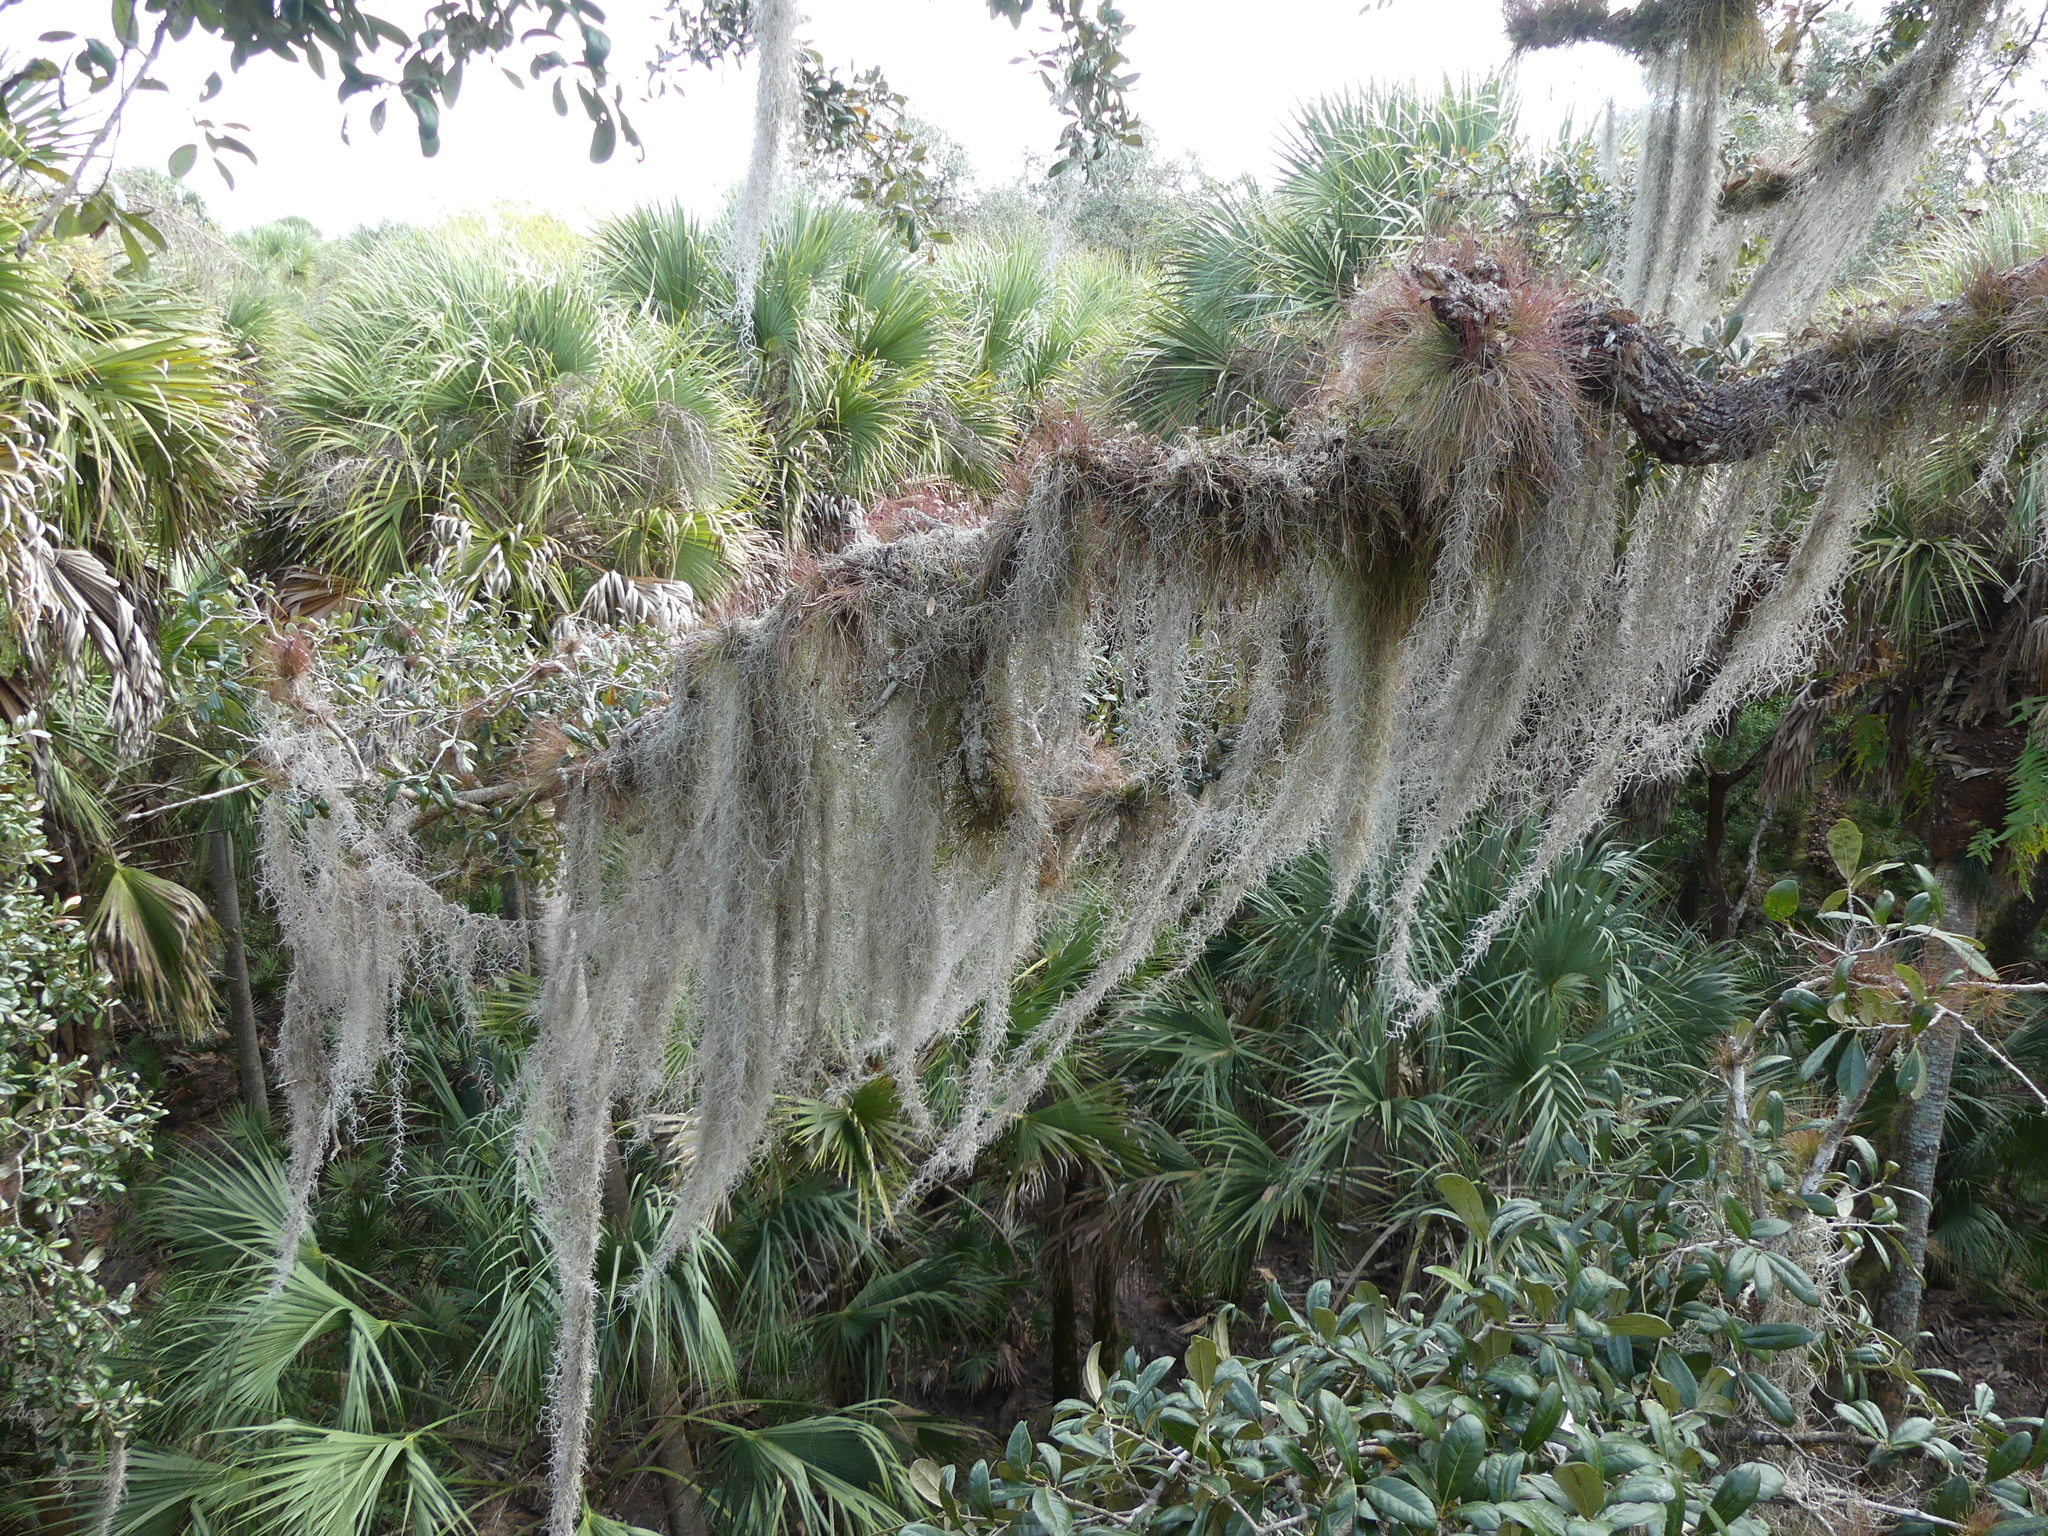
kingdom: Plantae
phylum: Tracheophyta
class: Liliopsida
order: Poales
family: Bromeliaceae
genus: Tillandsia
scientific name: Tillandsia usneoides
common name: Spanish moss
